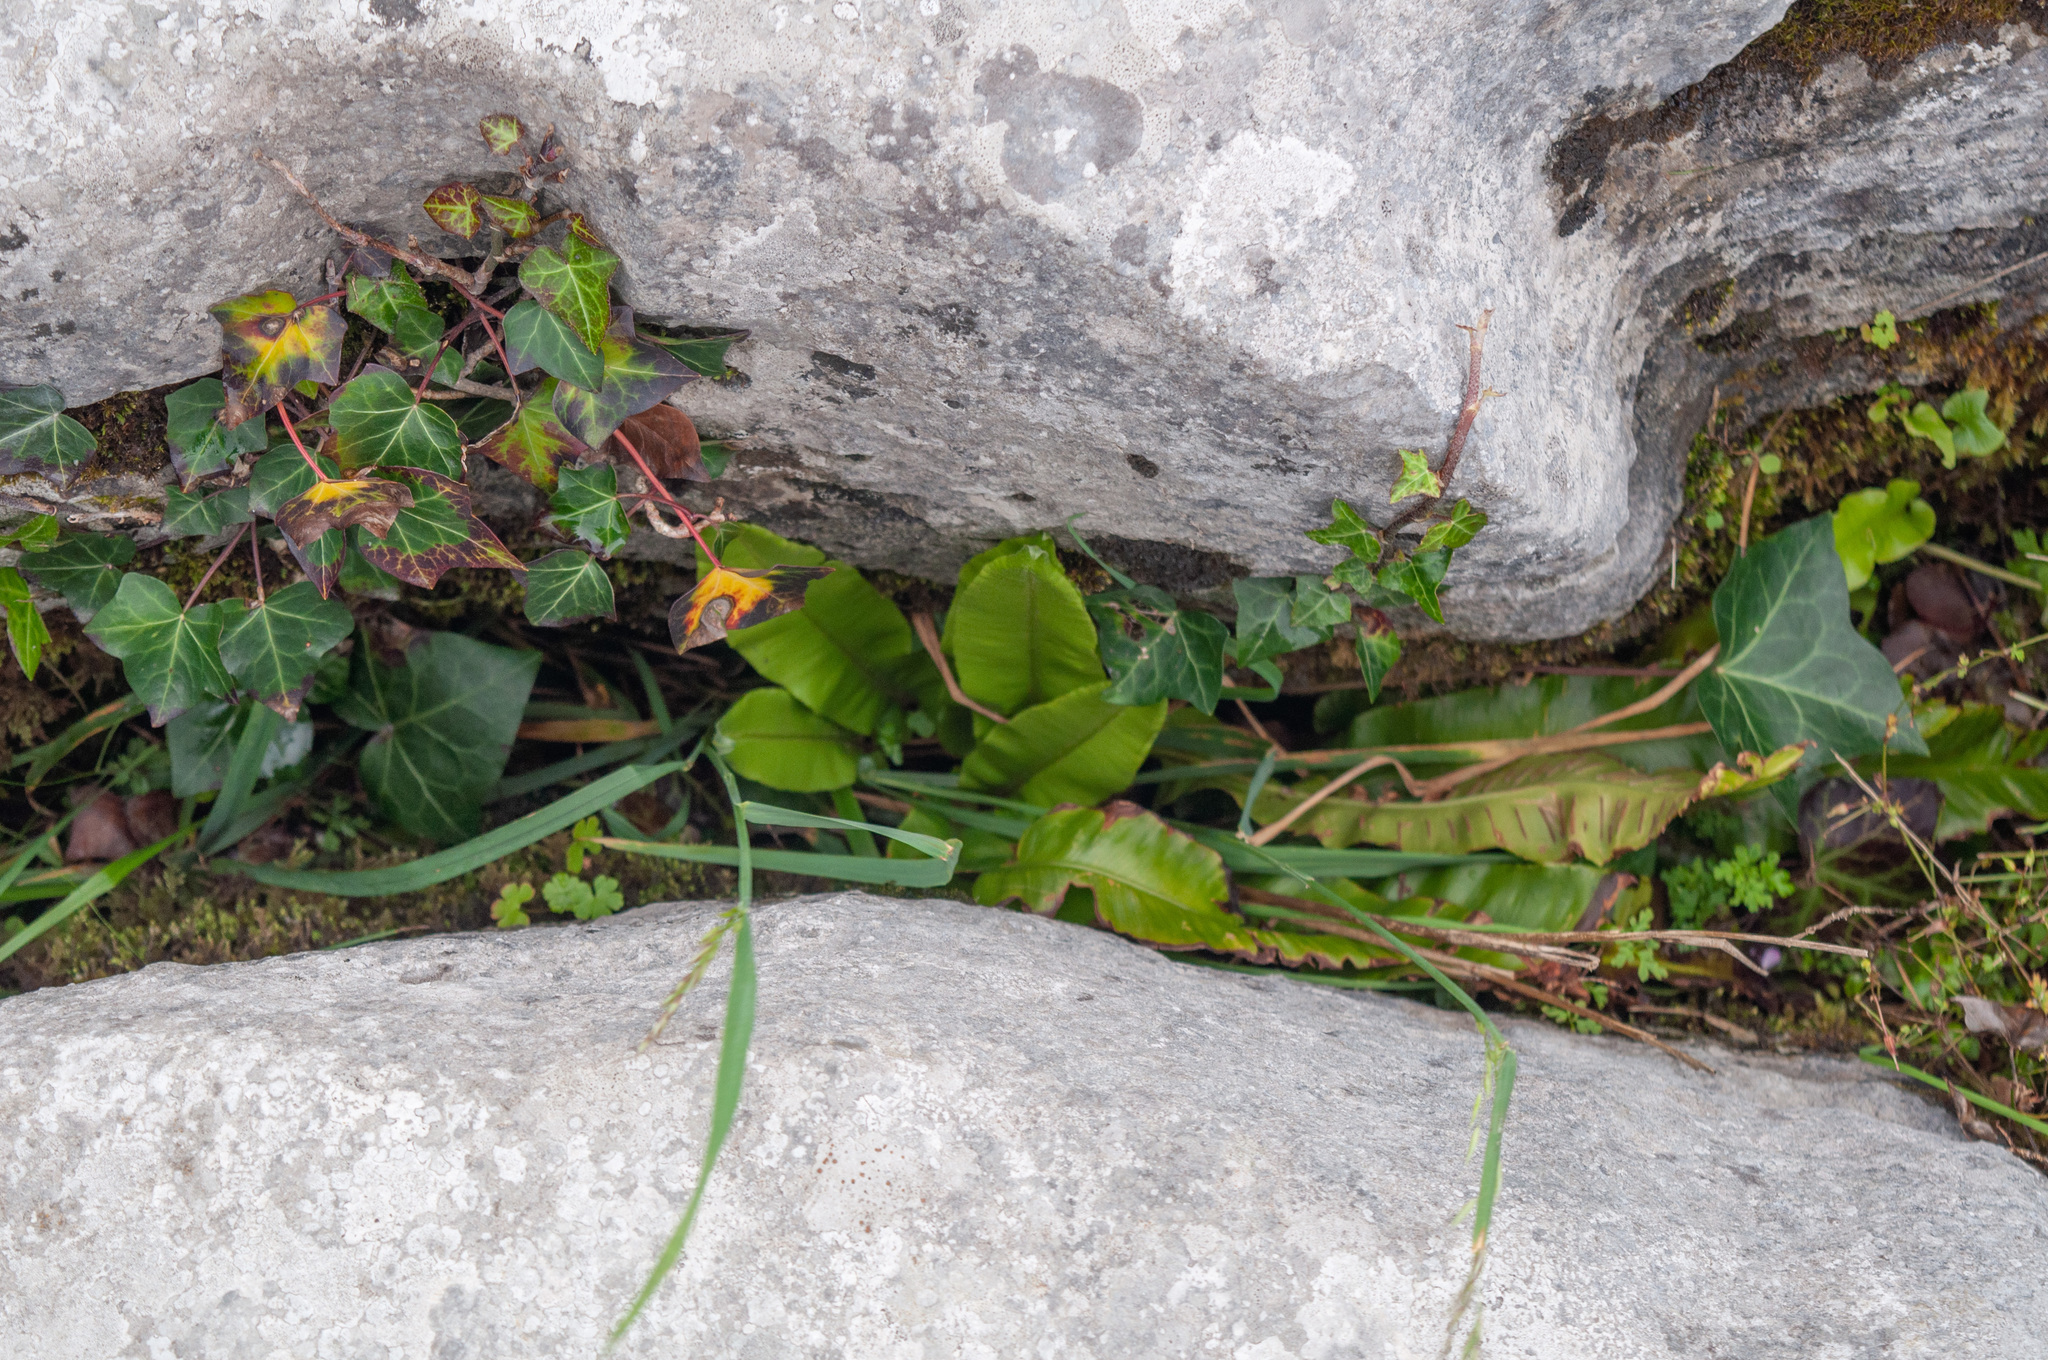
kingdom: Plantae
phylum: Tracheophyta
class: Polypodiopsida
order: Polypodiales
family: Aspleniaceae
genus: Asplenium
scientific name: Asplenium scolopendrium
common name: Hart's-tongue fern
